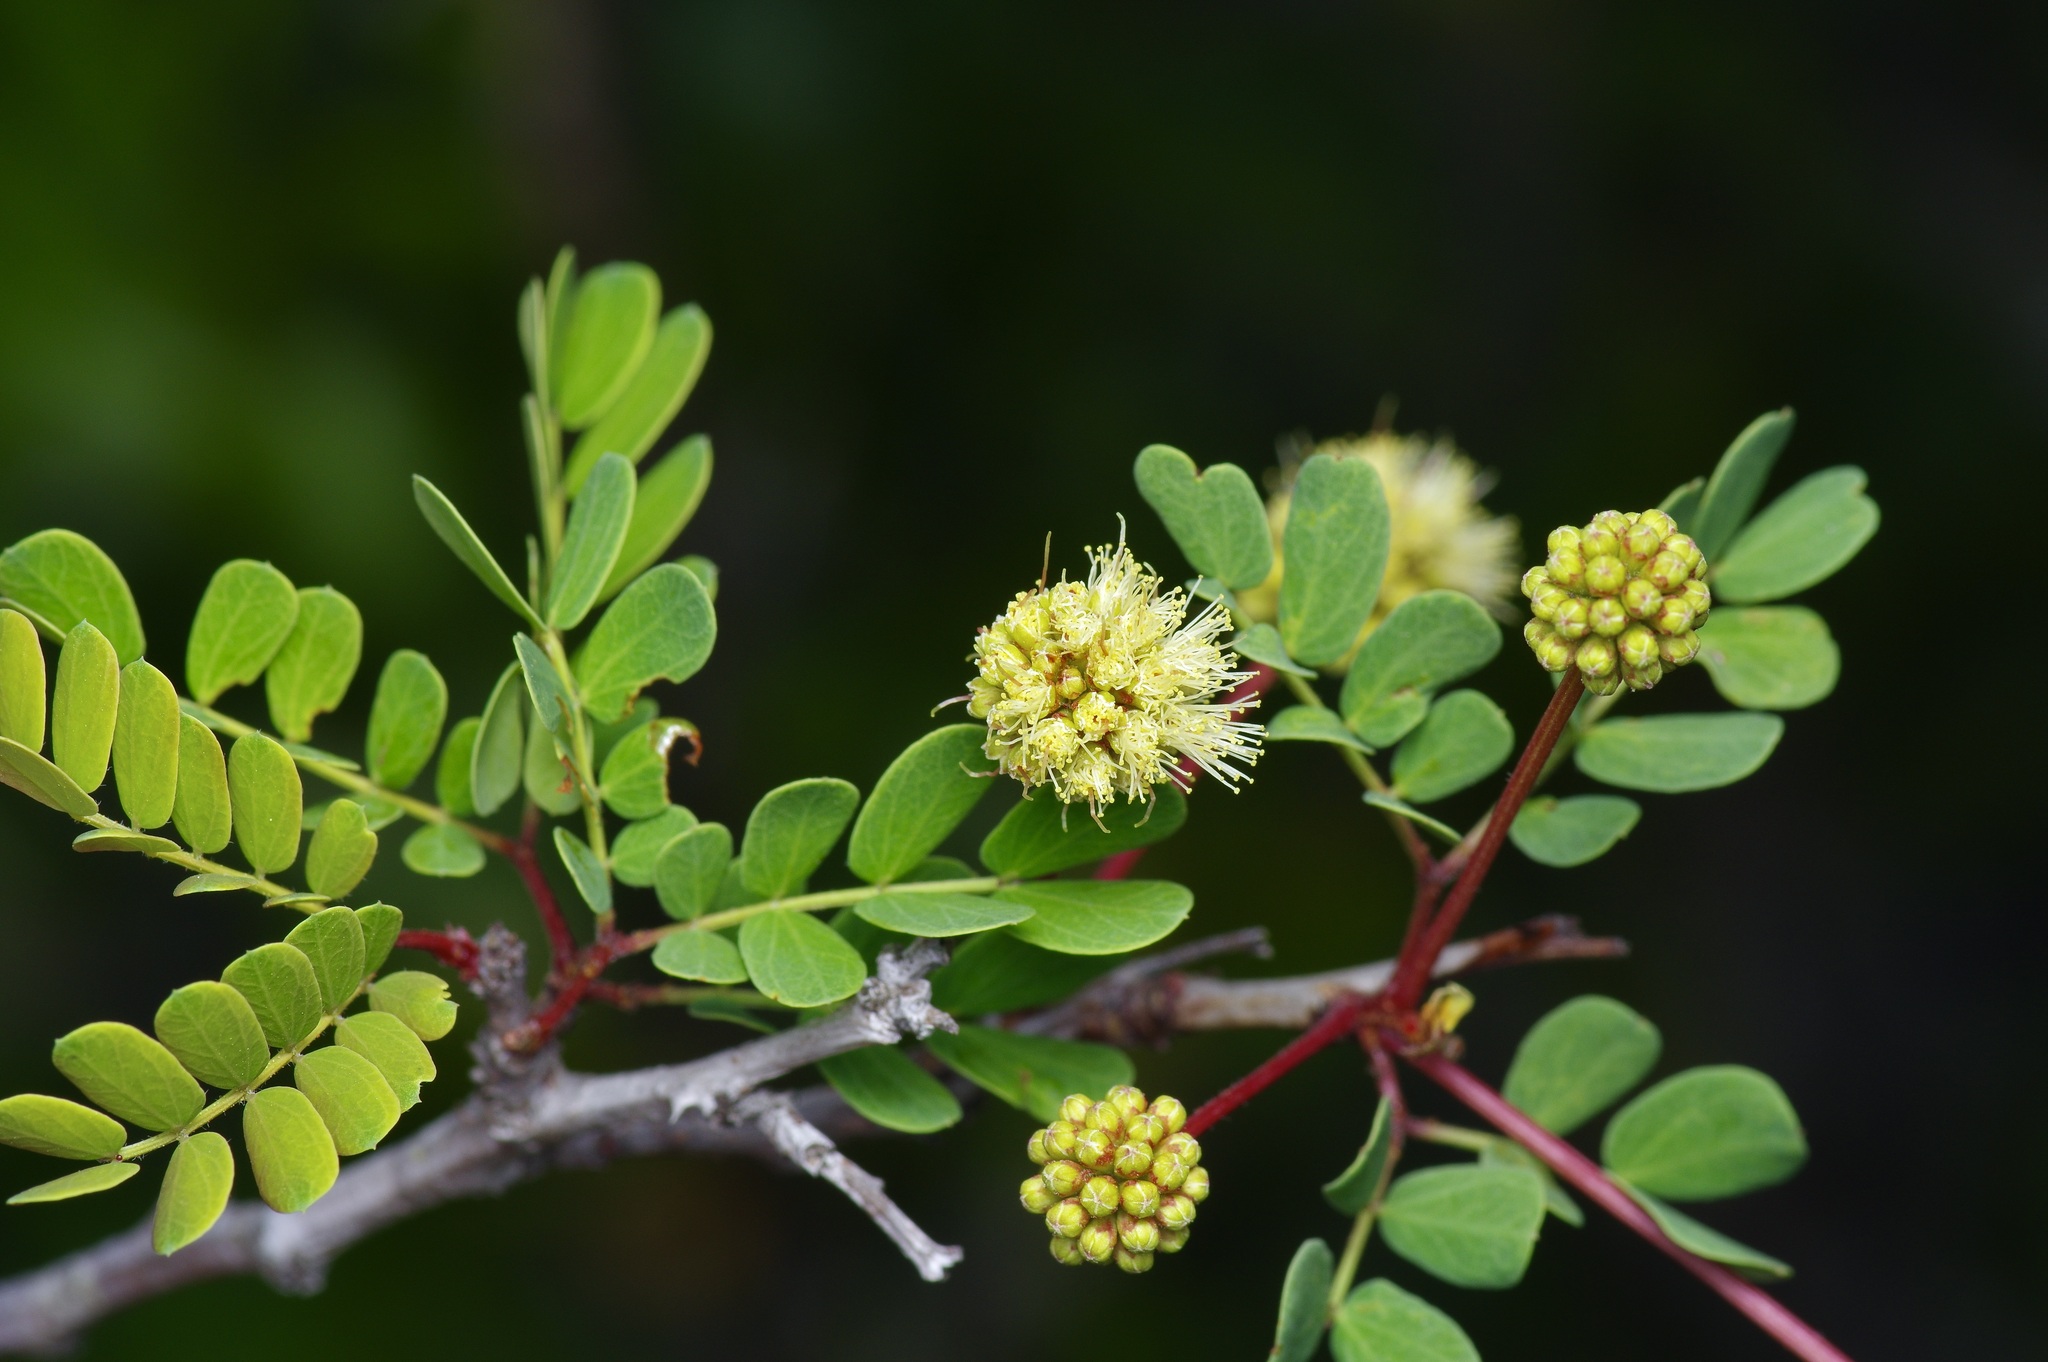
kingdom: Plantae
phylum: Tracheophyta
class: Magnoliopsida
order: Fabales
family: Fabaceae
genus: Senegalia
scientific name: Senegalia roemeriana
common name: Roemer's acacia
